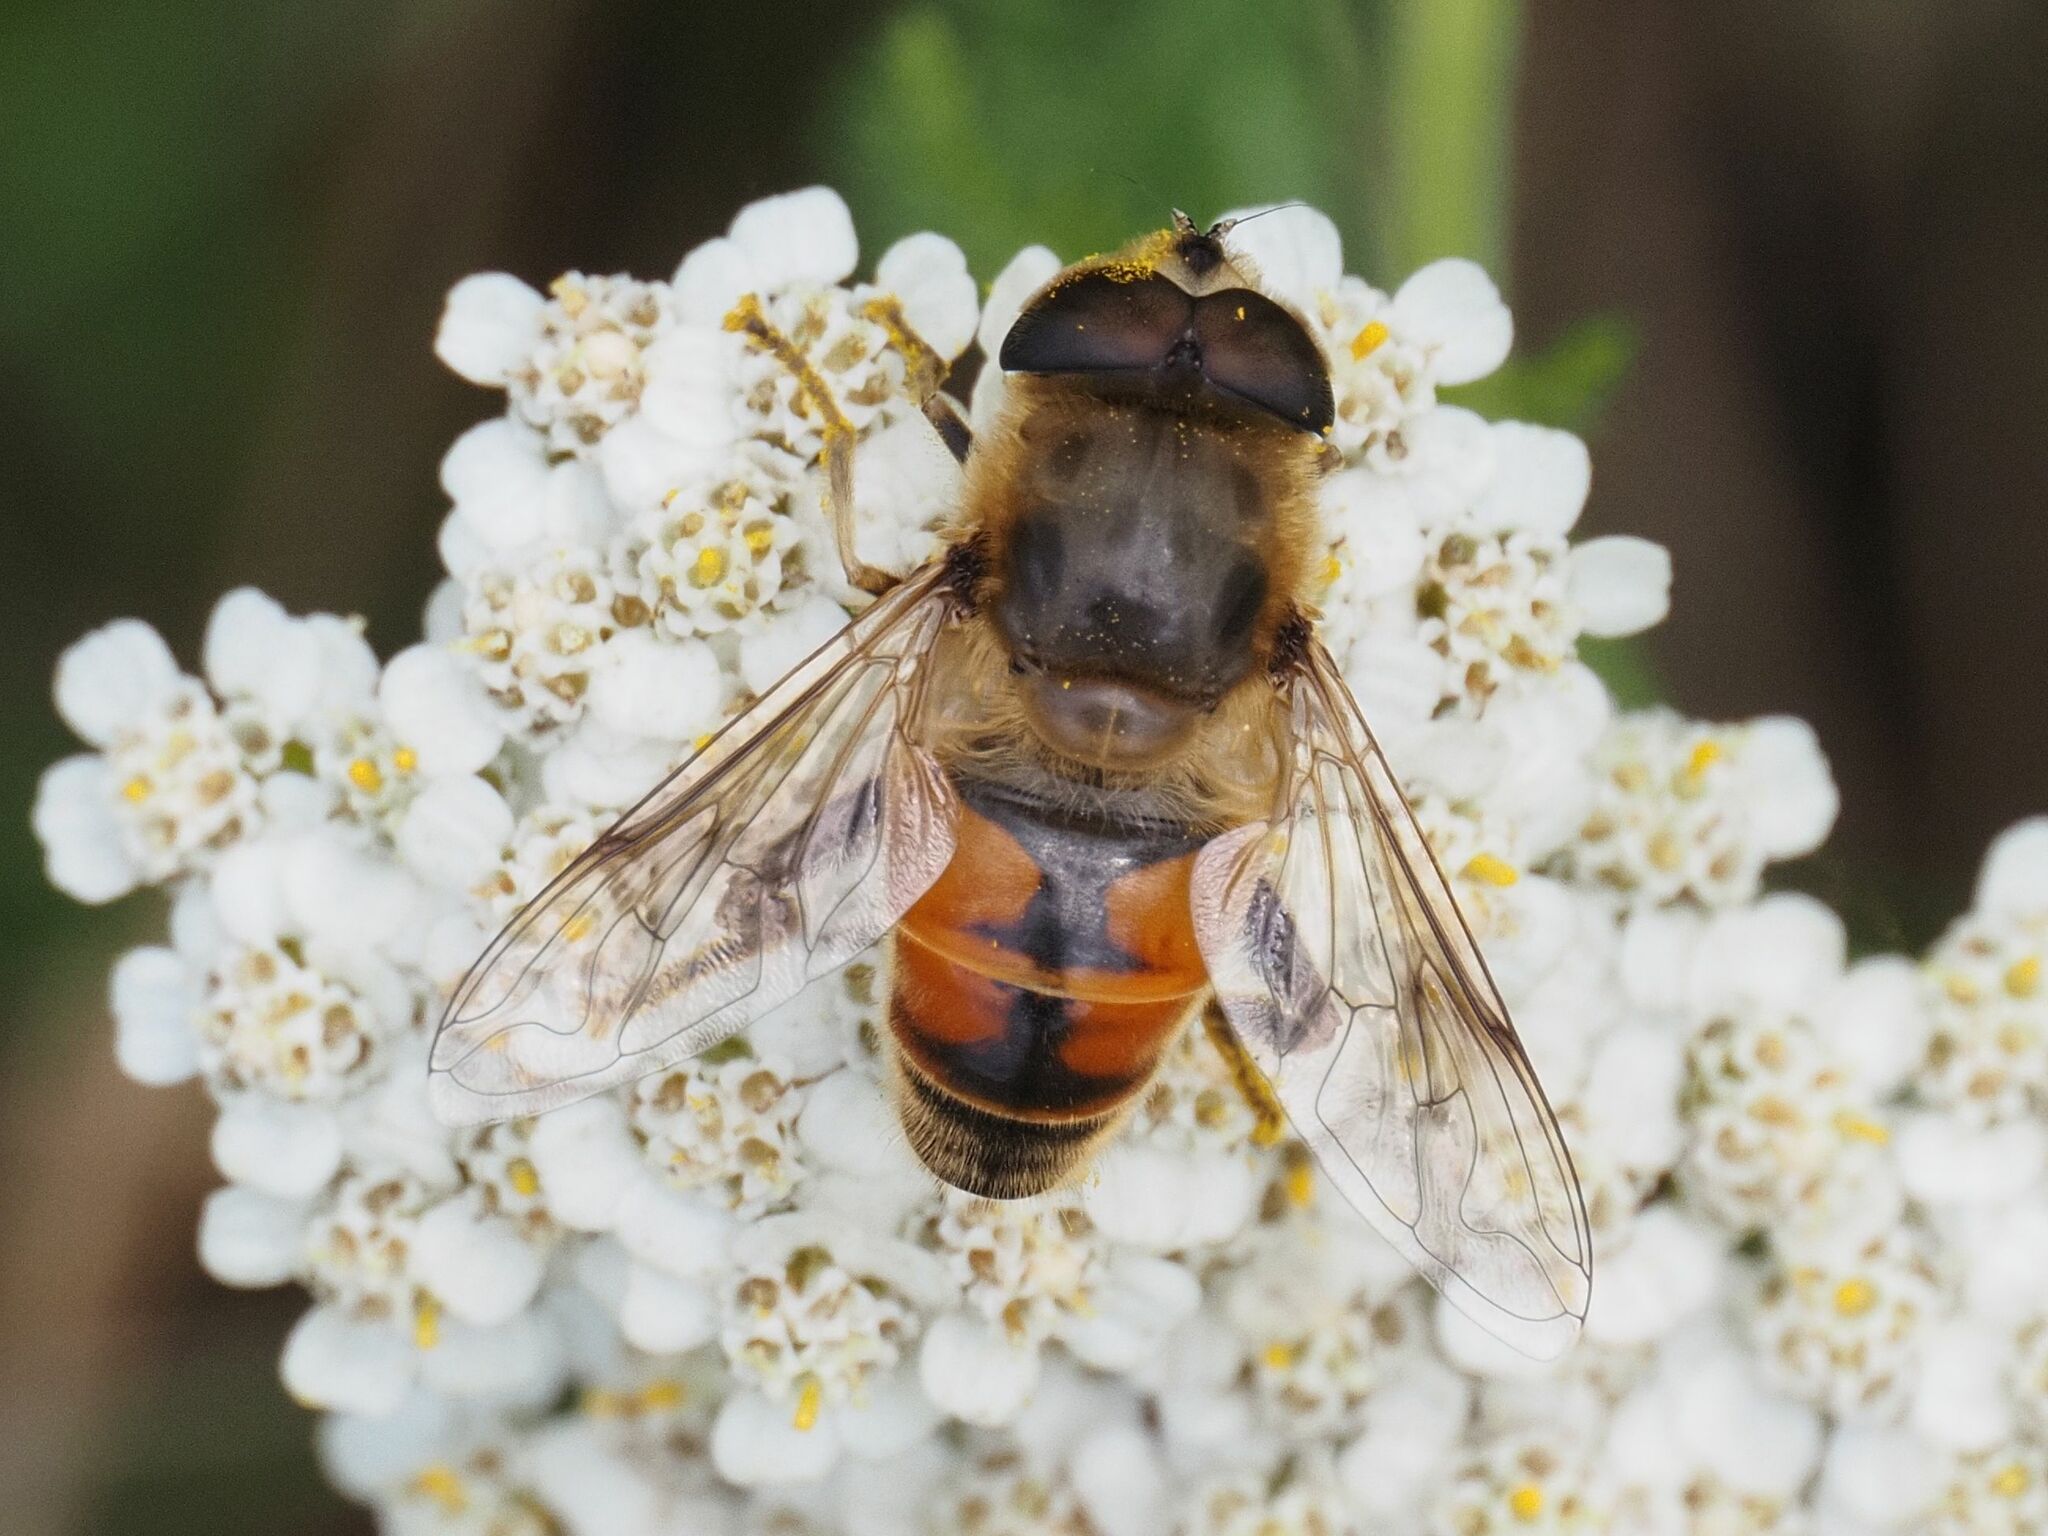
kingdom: Animalia
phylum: Arthropoda
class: Insecta
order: Diptera
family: Syrphidae
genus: Eristalis
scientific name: Eristalis tenax
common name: Drone fly
